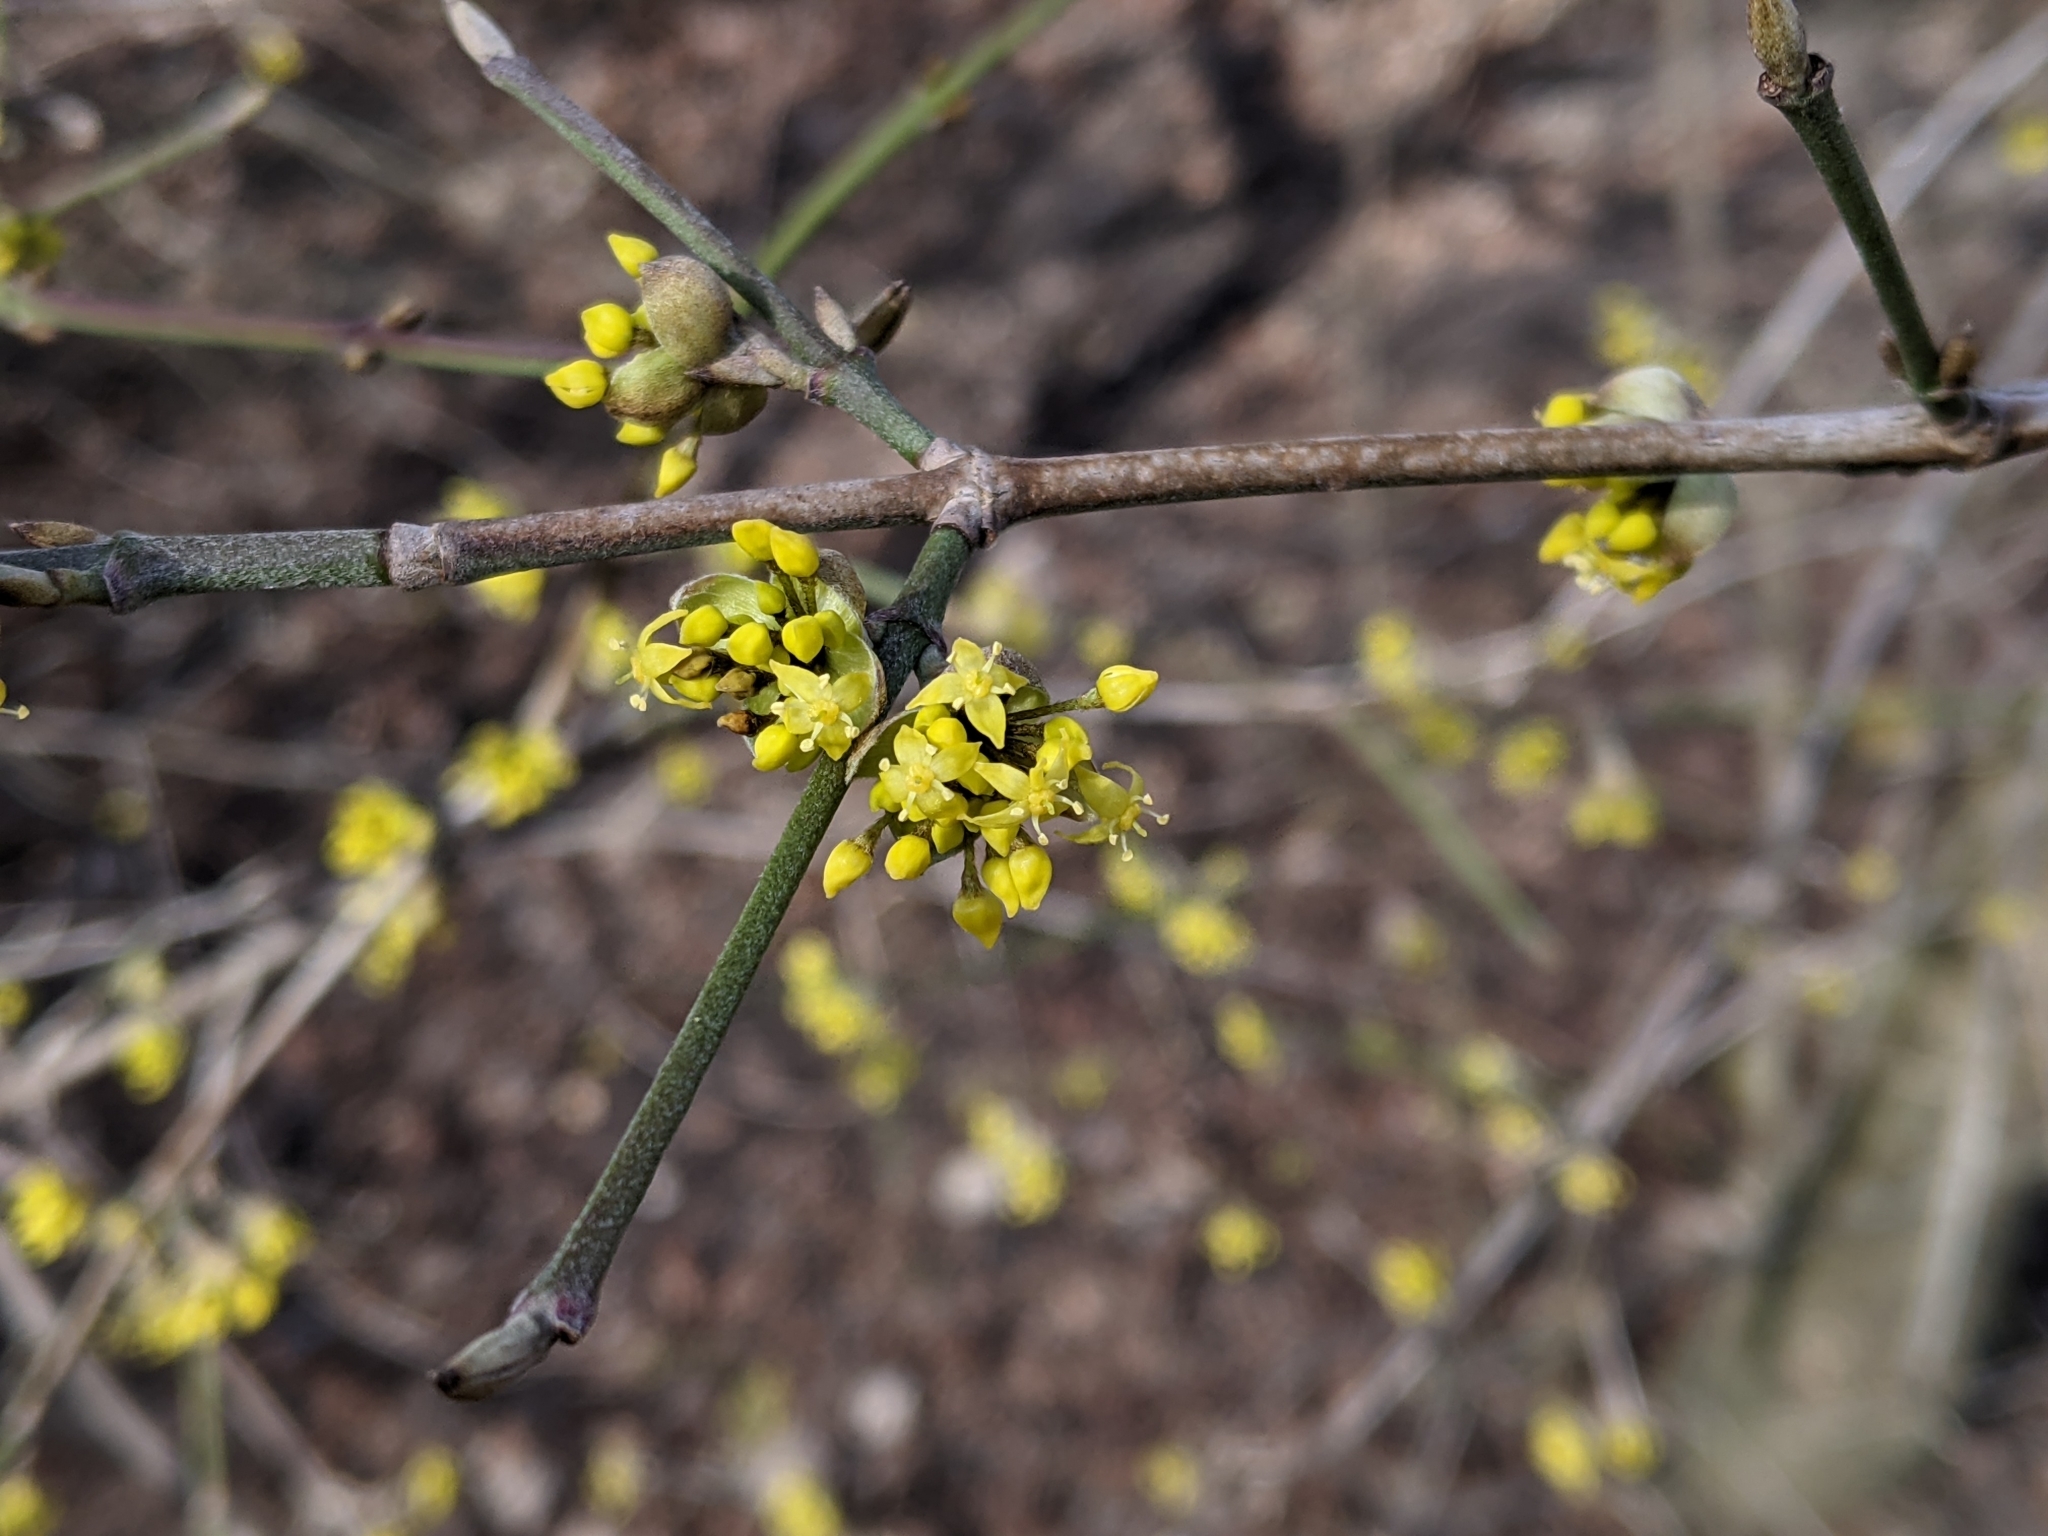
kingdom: Plantae
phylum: Tracheophyta
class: Magnoliopsida
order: Cornales
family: Cornaceae
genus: Cornus
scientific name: Cornus mas
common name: Cornelian-cherry
